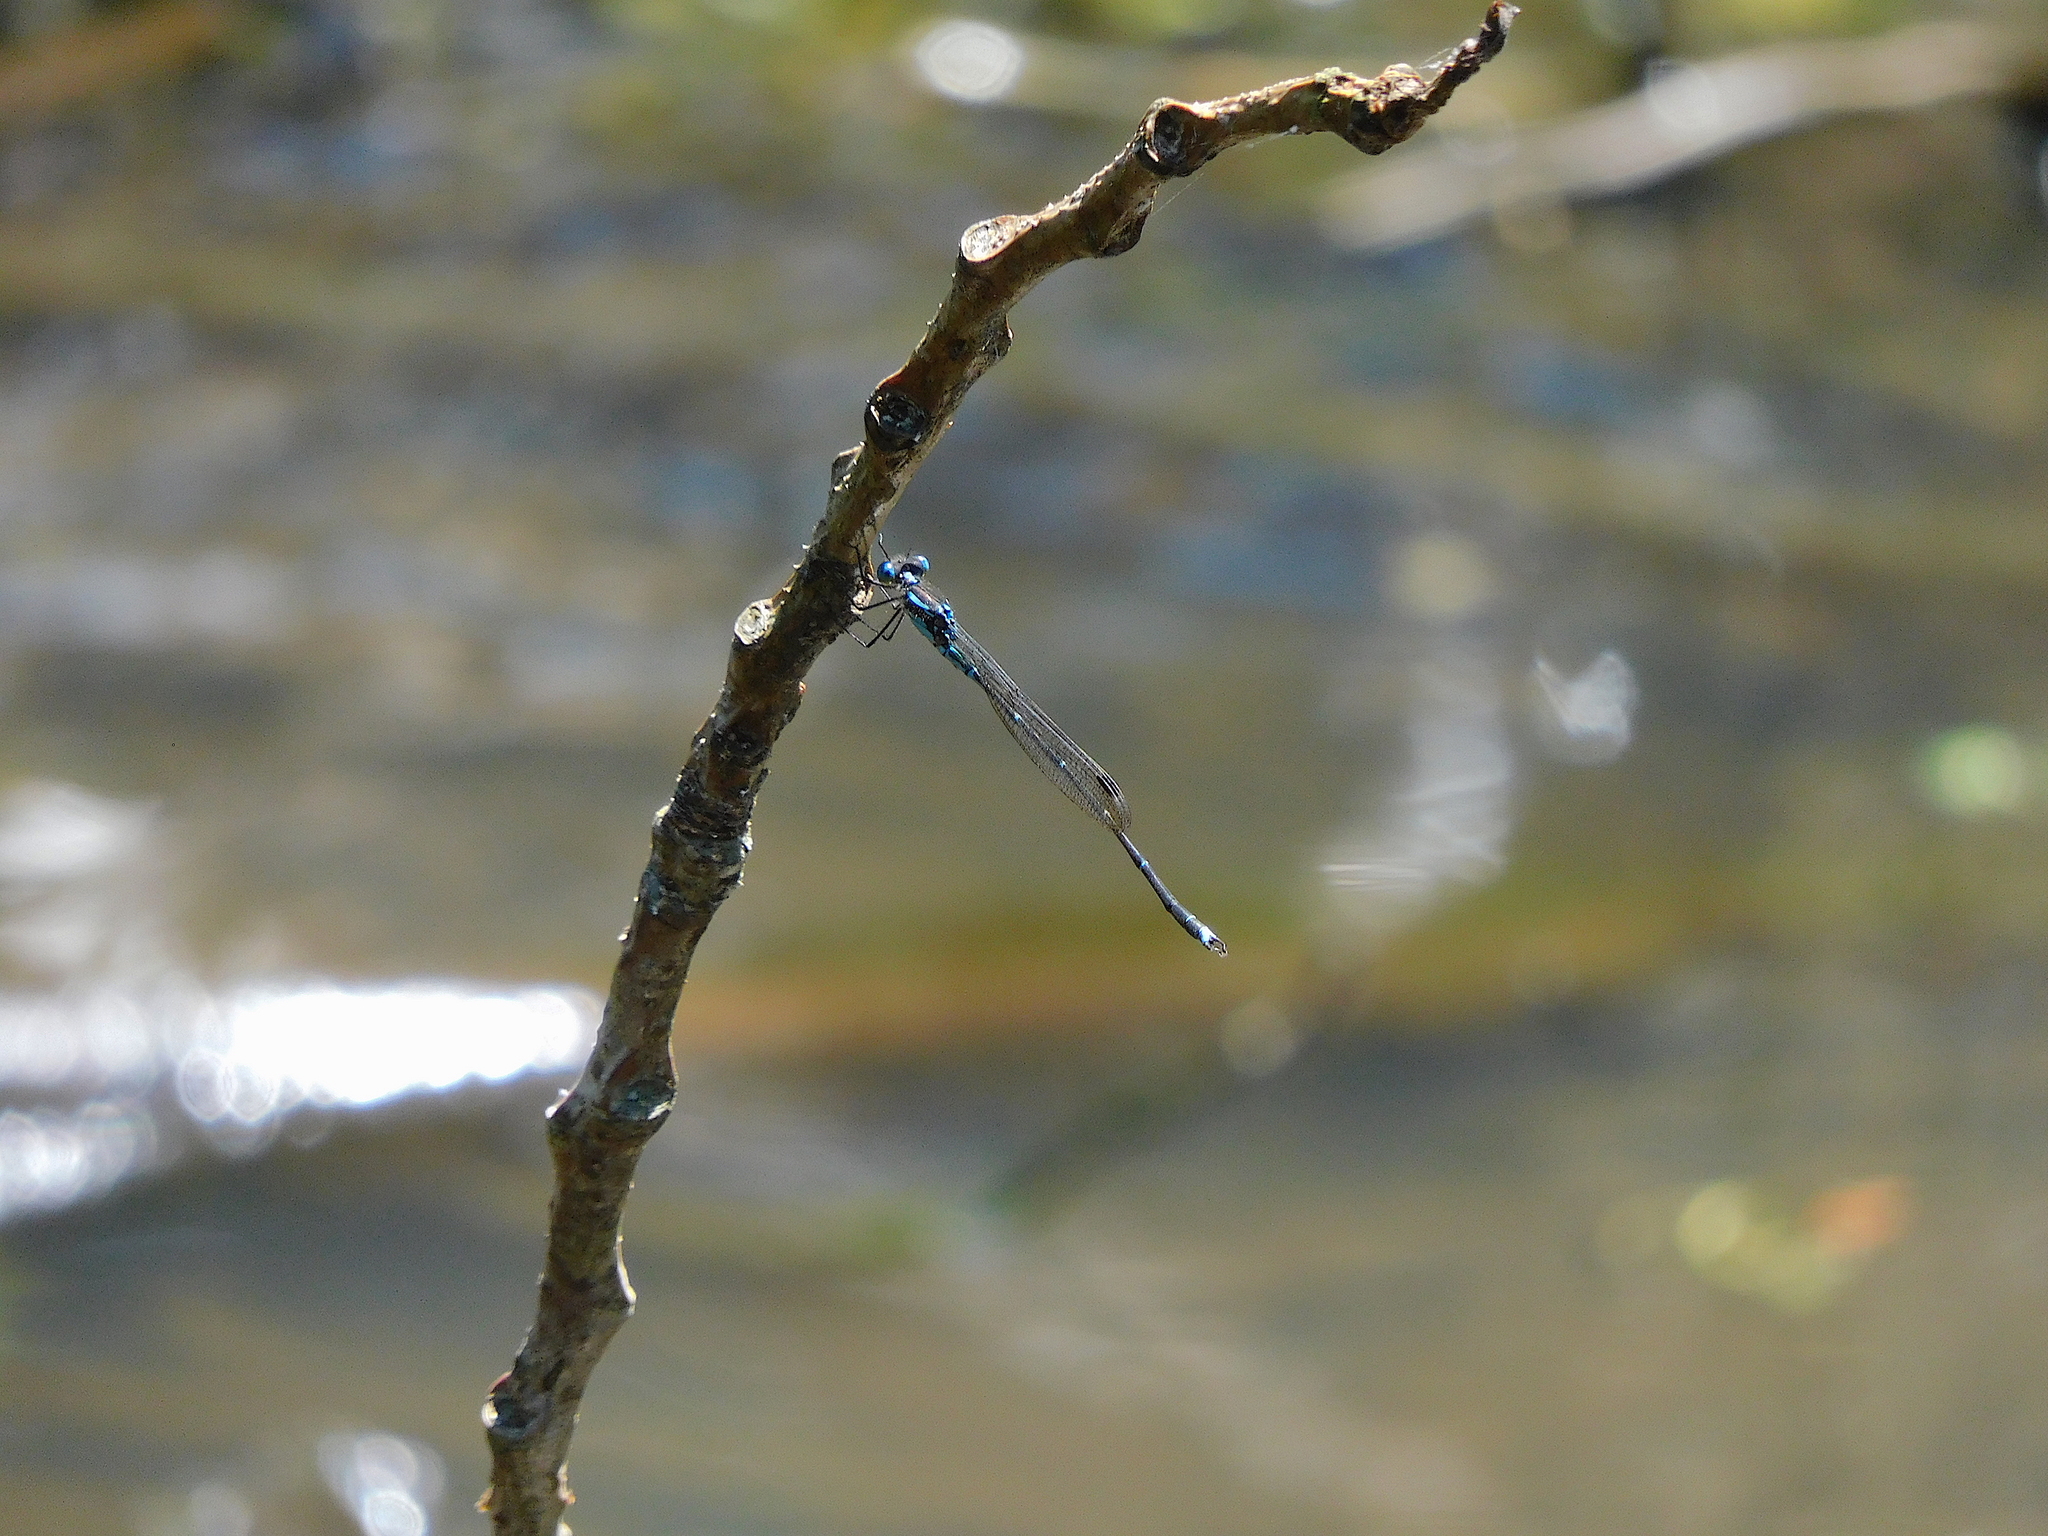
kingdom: Animalia
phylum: Arthropoda
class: Insecta
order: Odonata
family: Lestidae
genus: Austrolestes
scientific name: Austrolestes colensonis
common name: Blue damselfly
